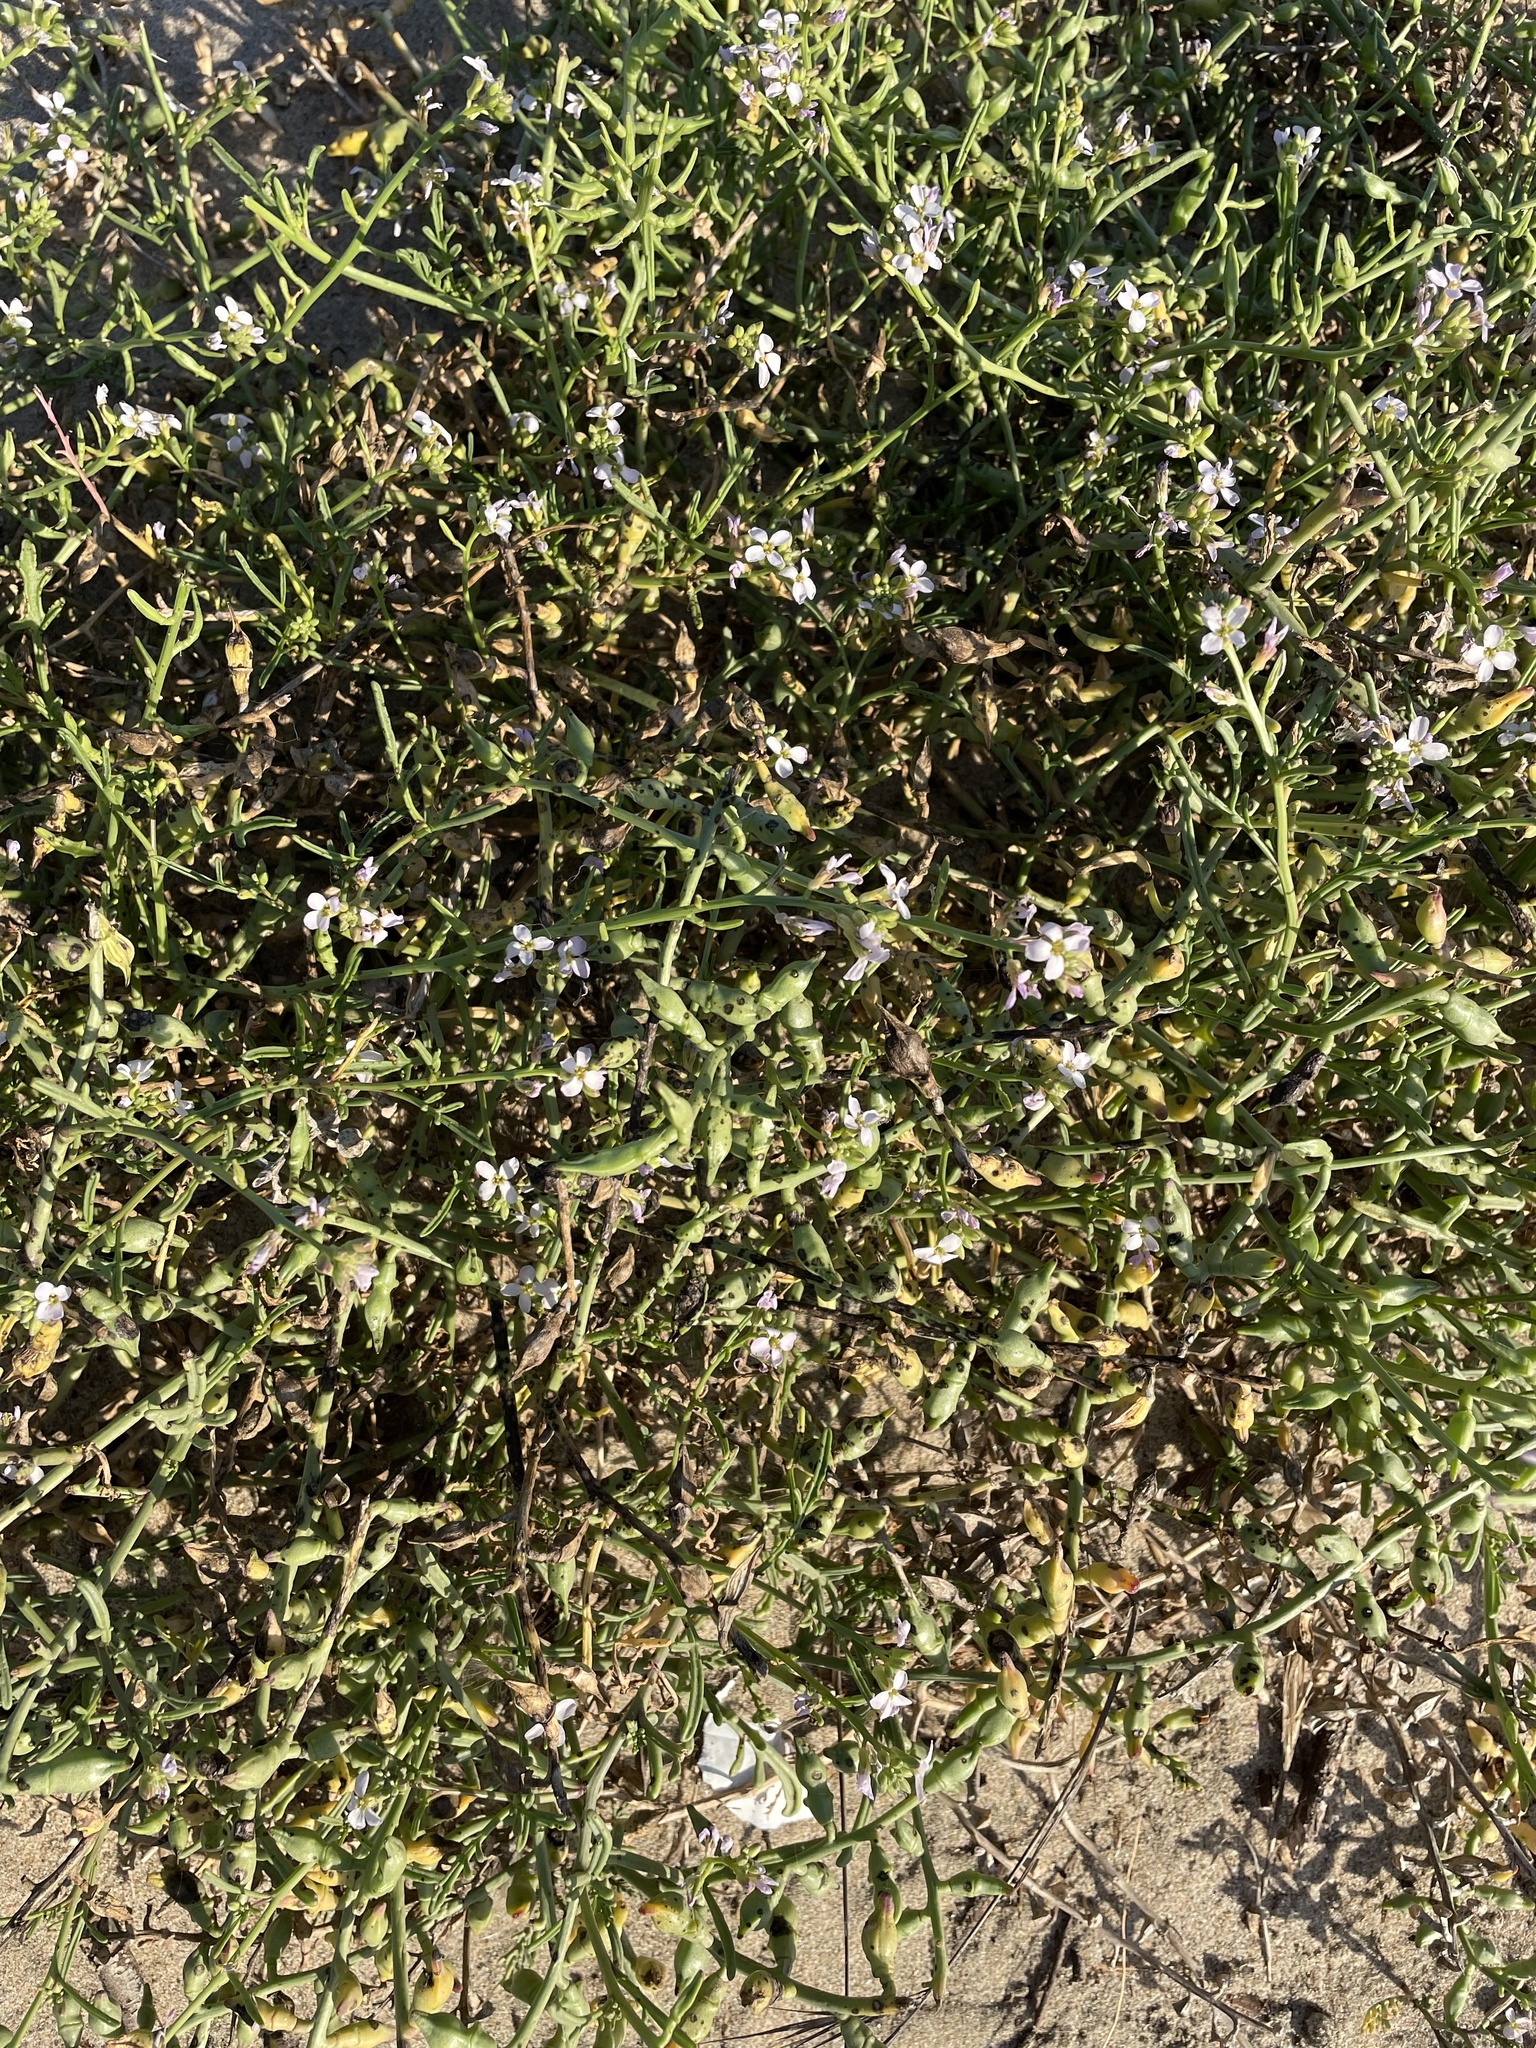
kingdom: Plantae
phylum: Tracheophyta
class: Magnoliopsida
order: Brassicales
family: Brassicaceae
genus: Cakile
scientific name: Cakile maritima
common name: Sea rocket
